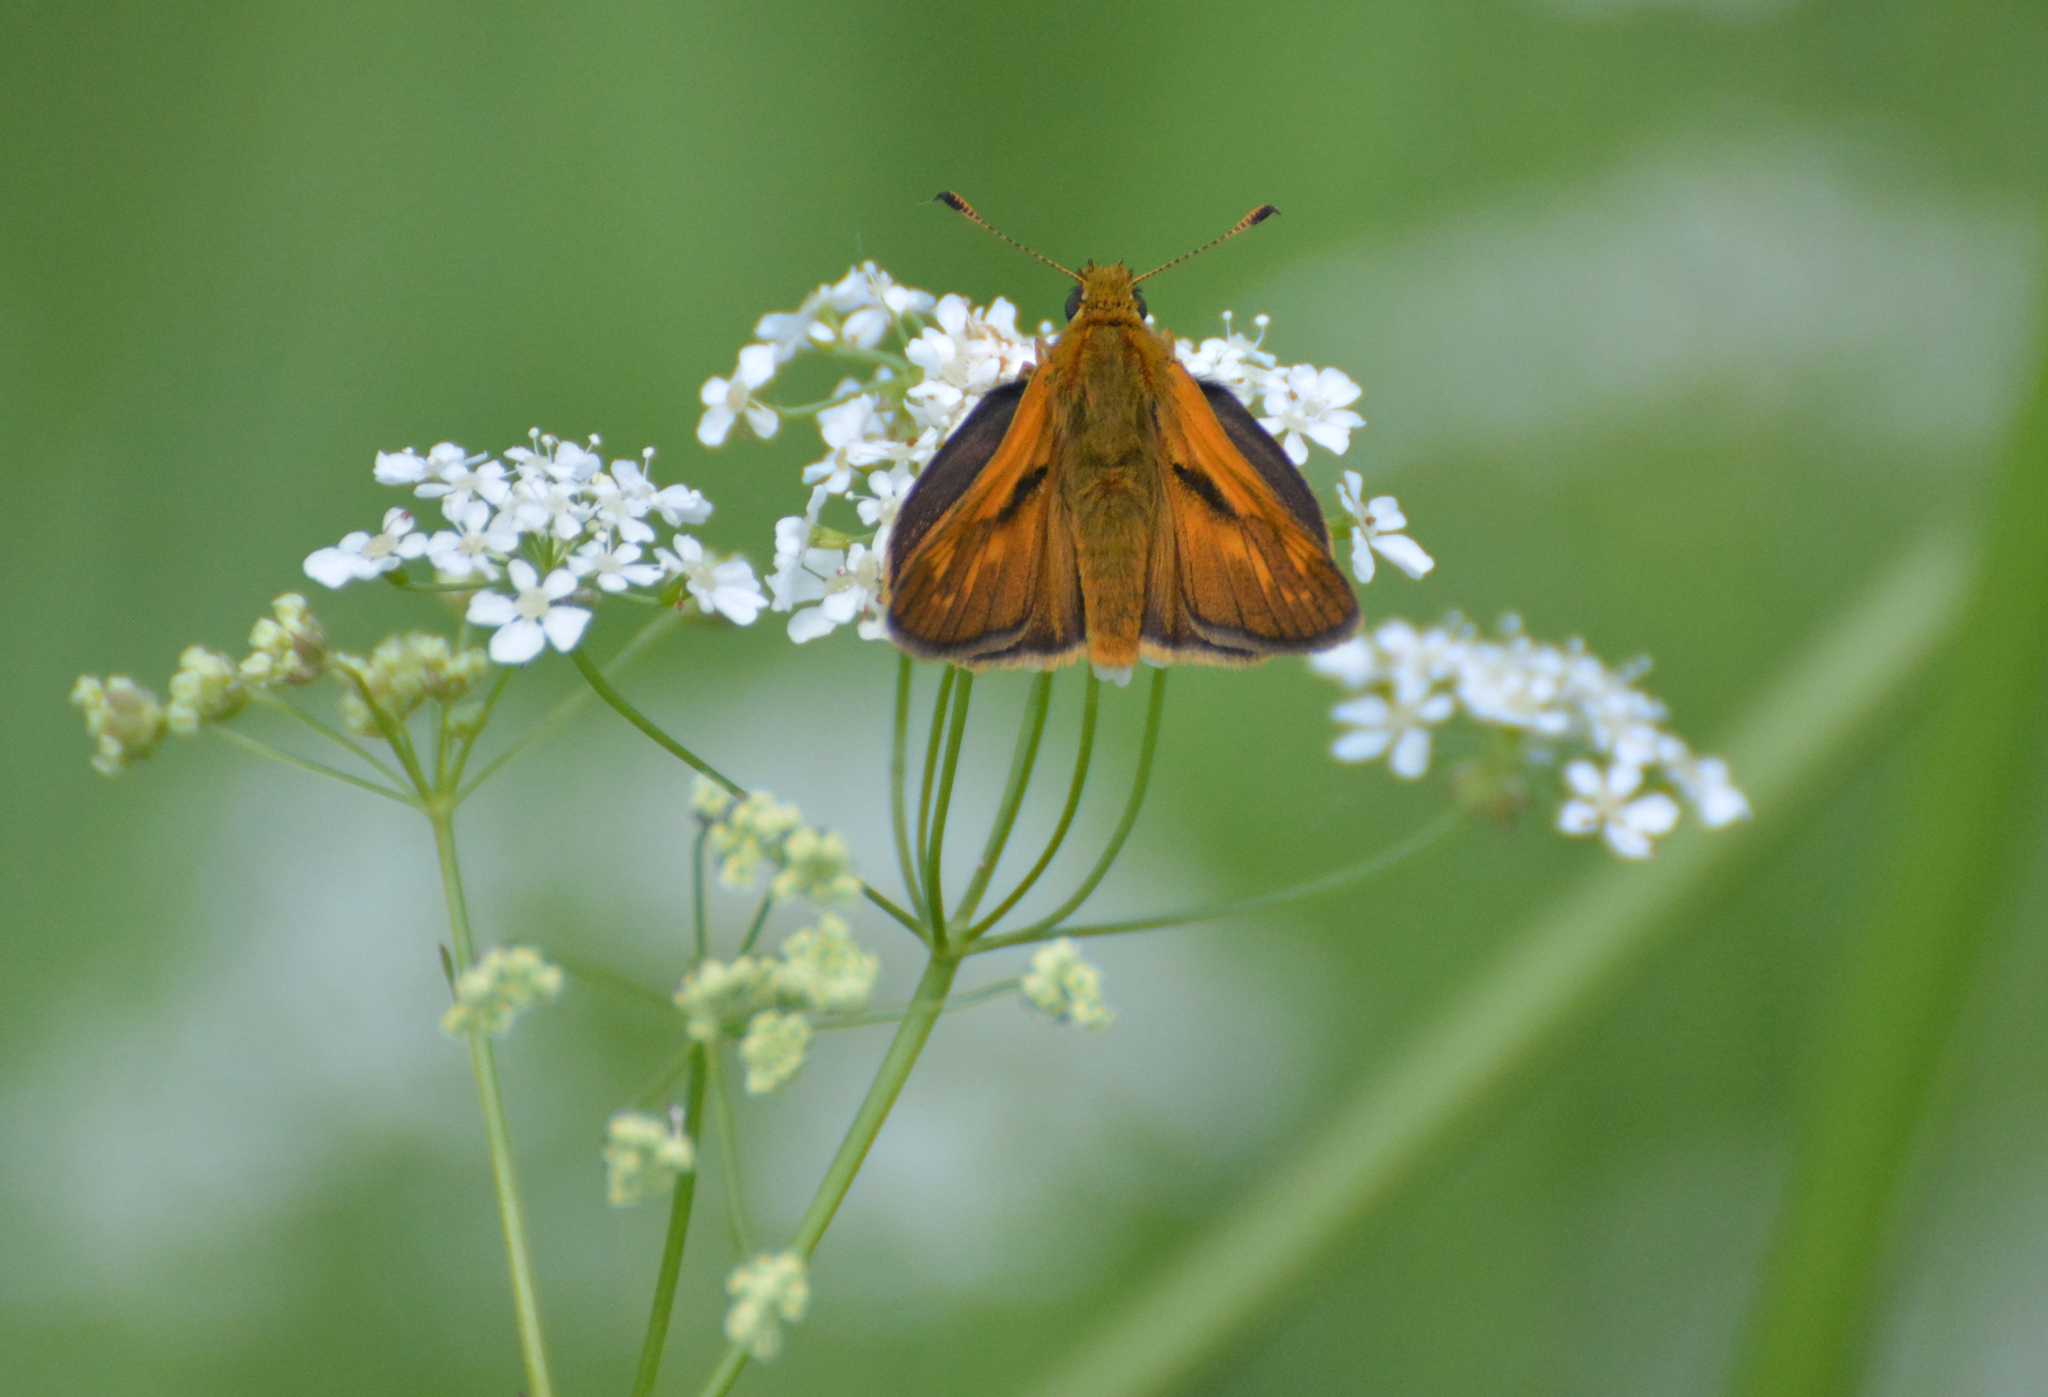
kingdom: Animalia
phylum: Arthropoda
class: Insecta
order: Lepidoptera
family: Hesperiidae
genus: Ochlodes
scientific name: Ochlodes venata
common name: Large skipper
